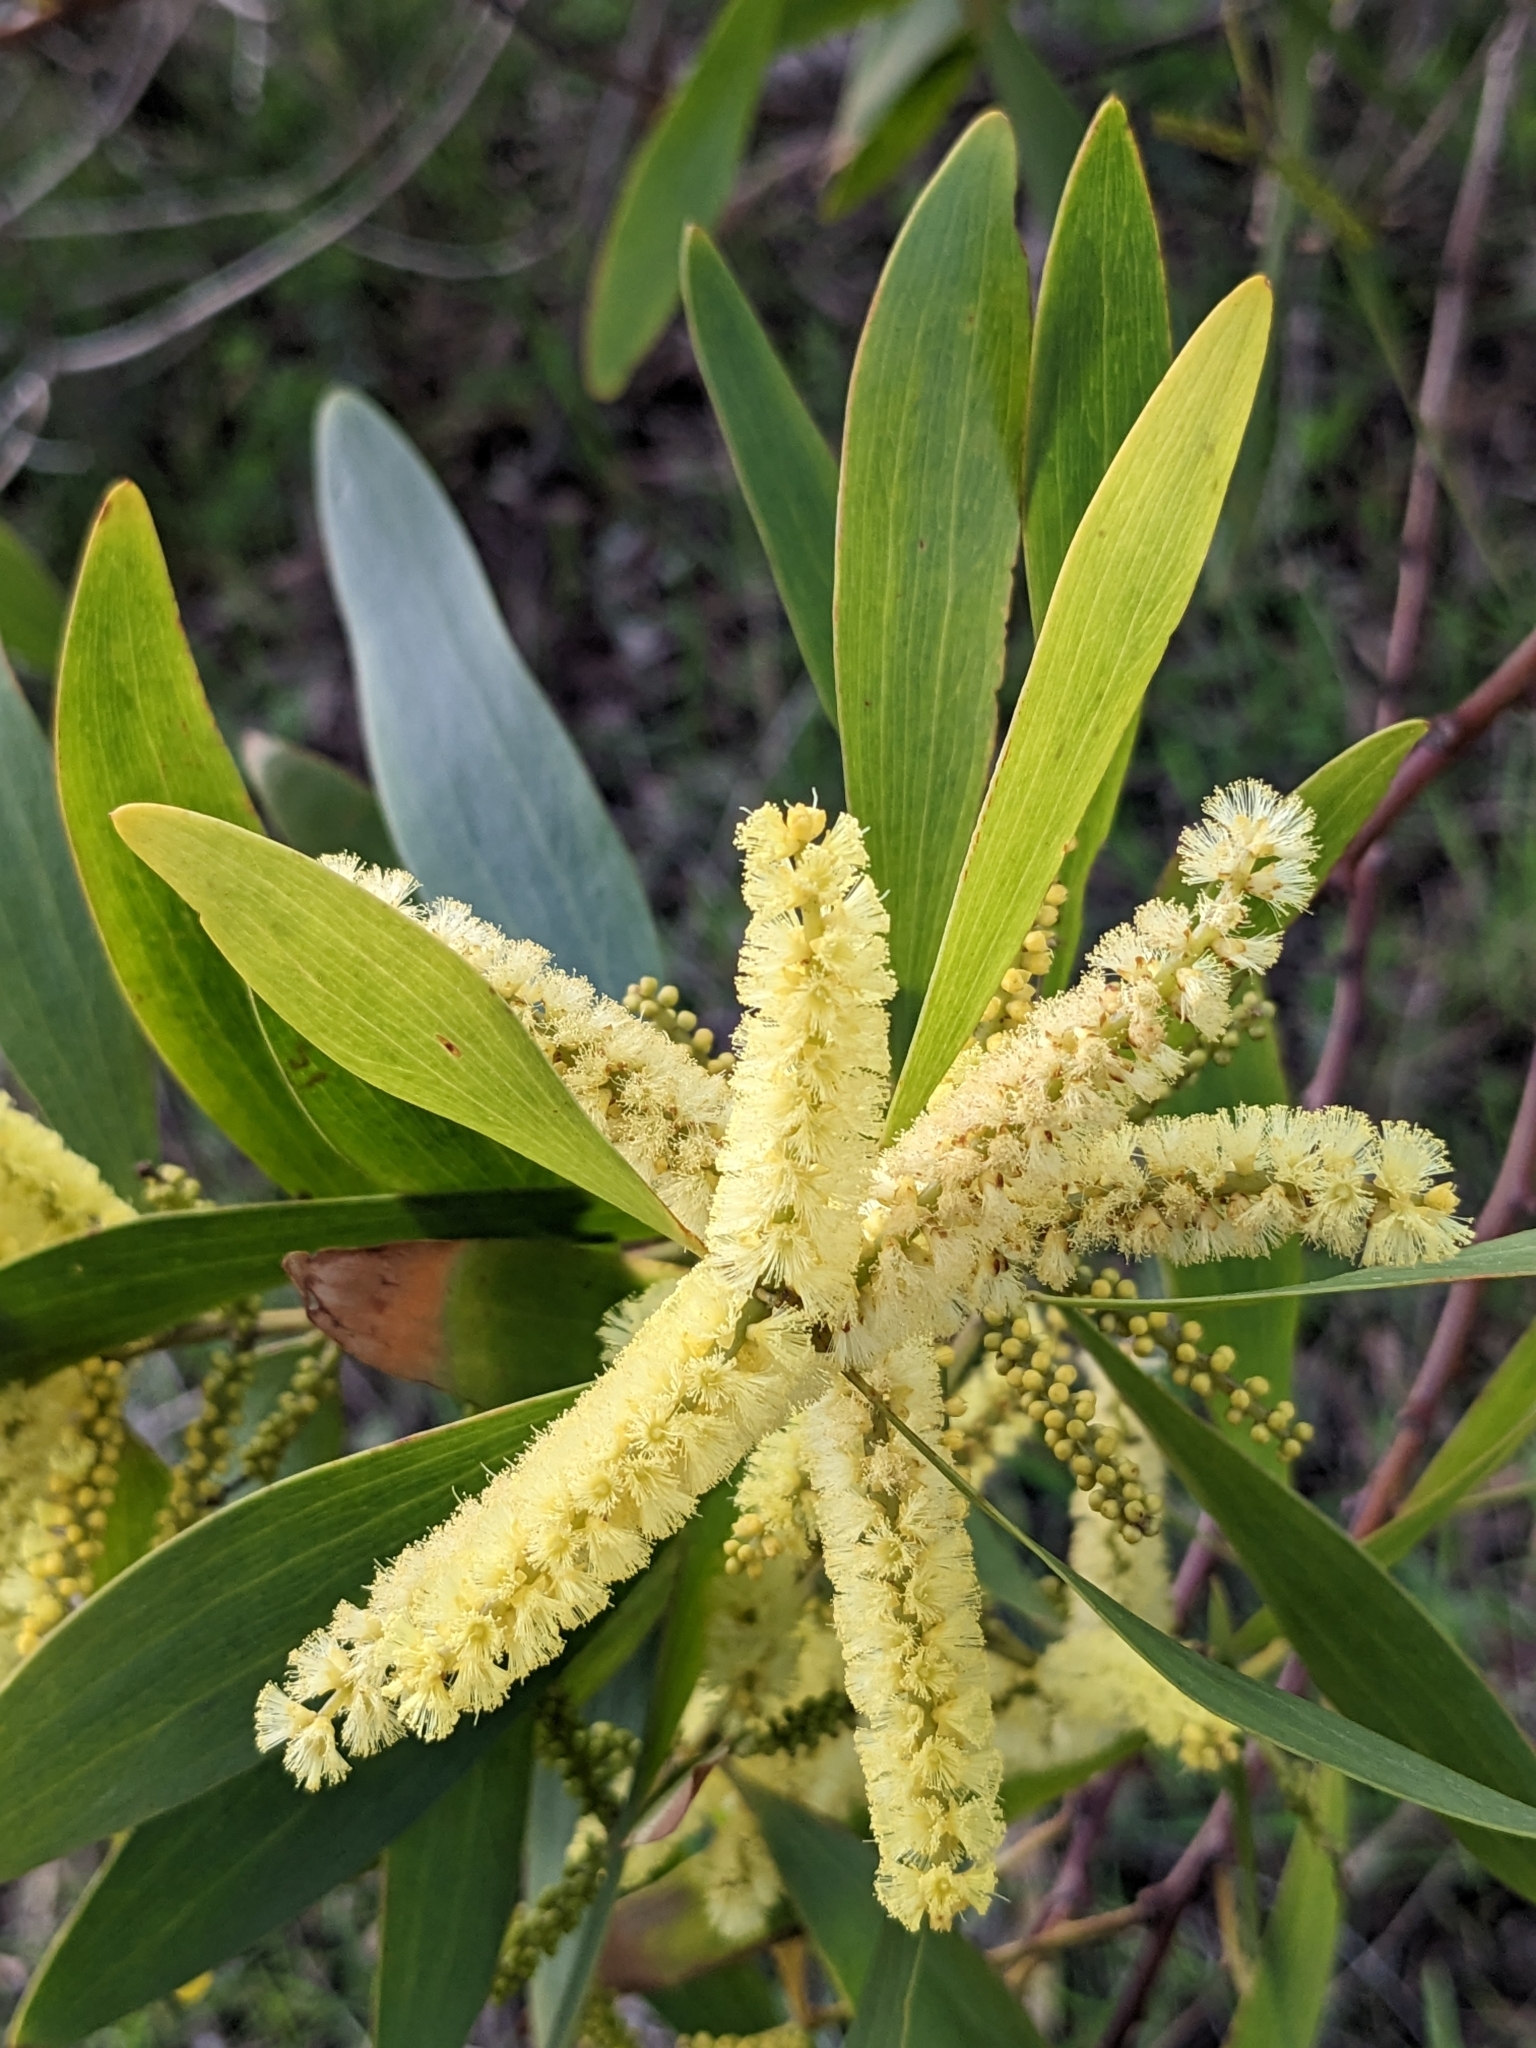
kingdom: Plantae
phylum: Tracheophyta
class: Magnoliopsida
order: Fabales
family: Fabaceae
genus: Acacia
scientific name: Acacia longifolia
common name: Sydney golden wattle
